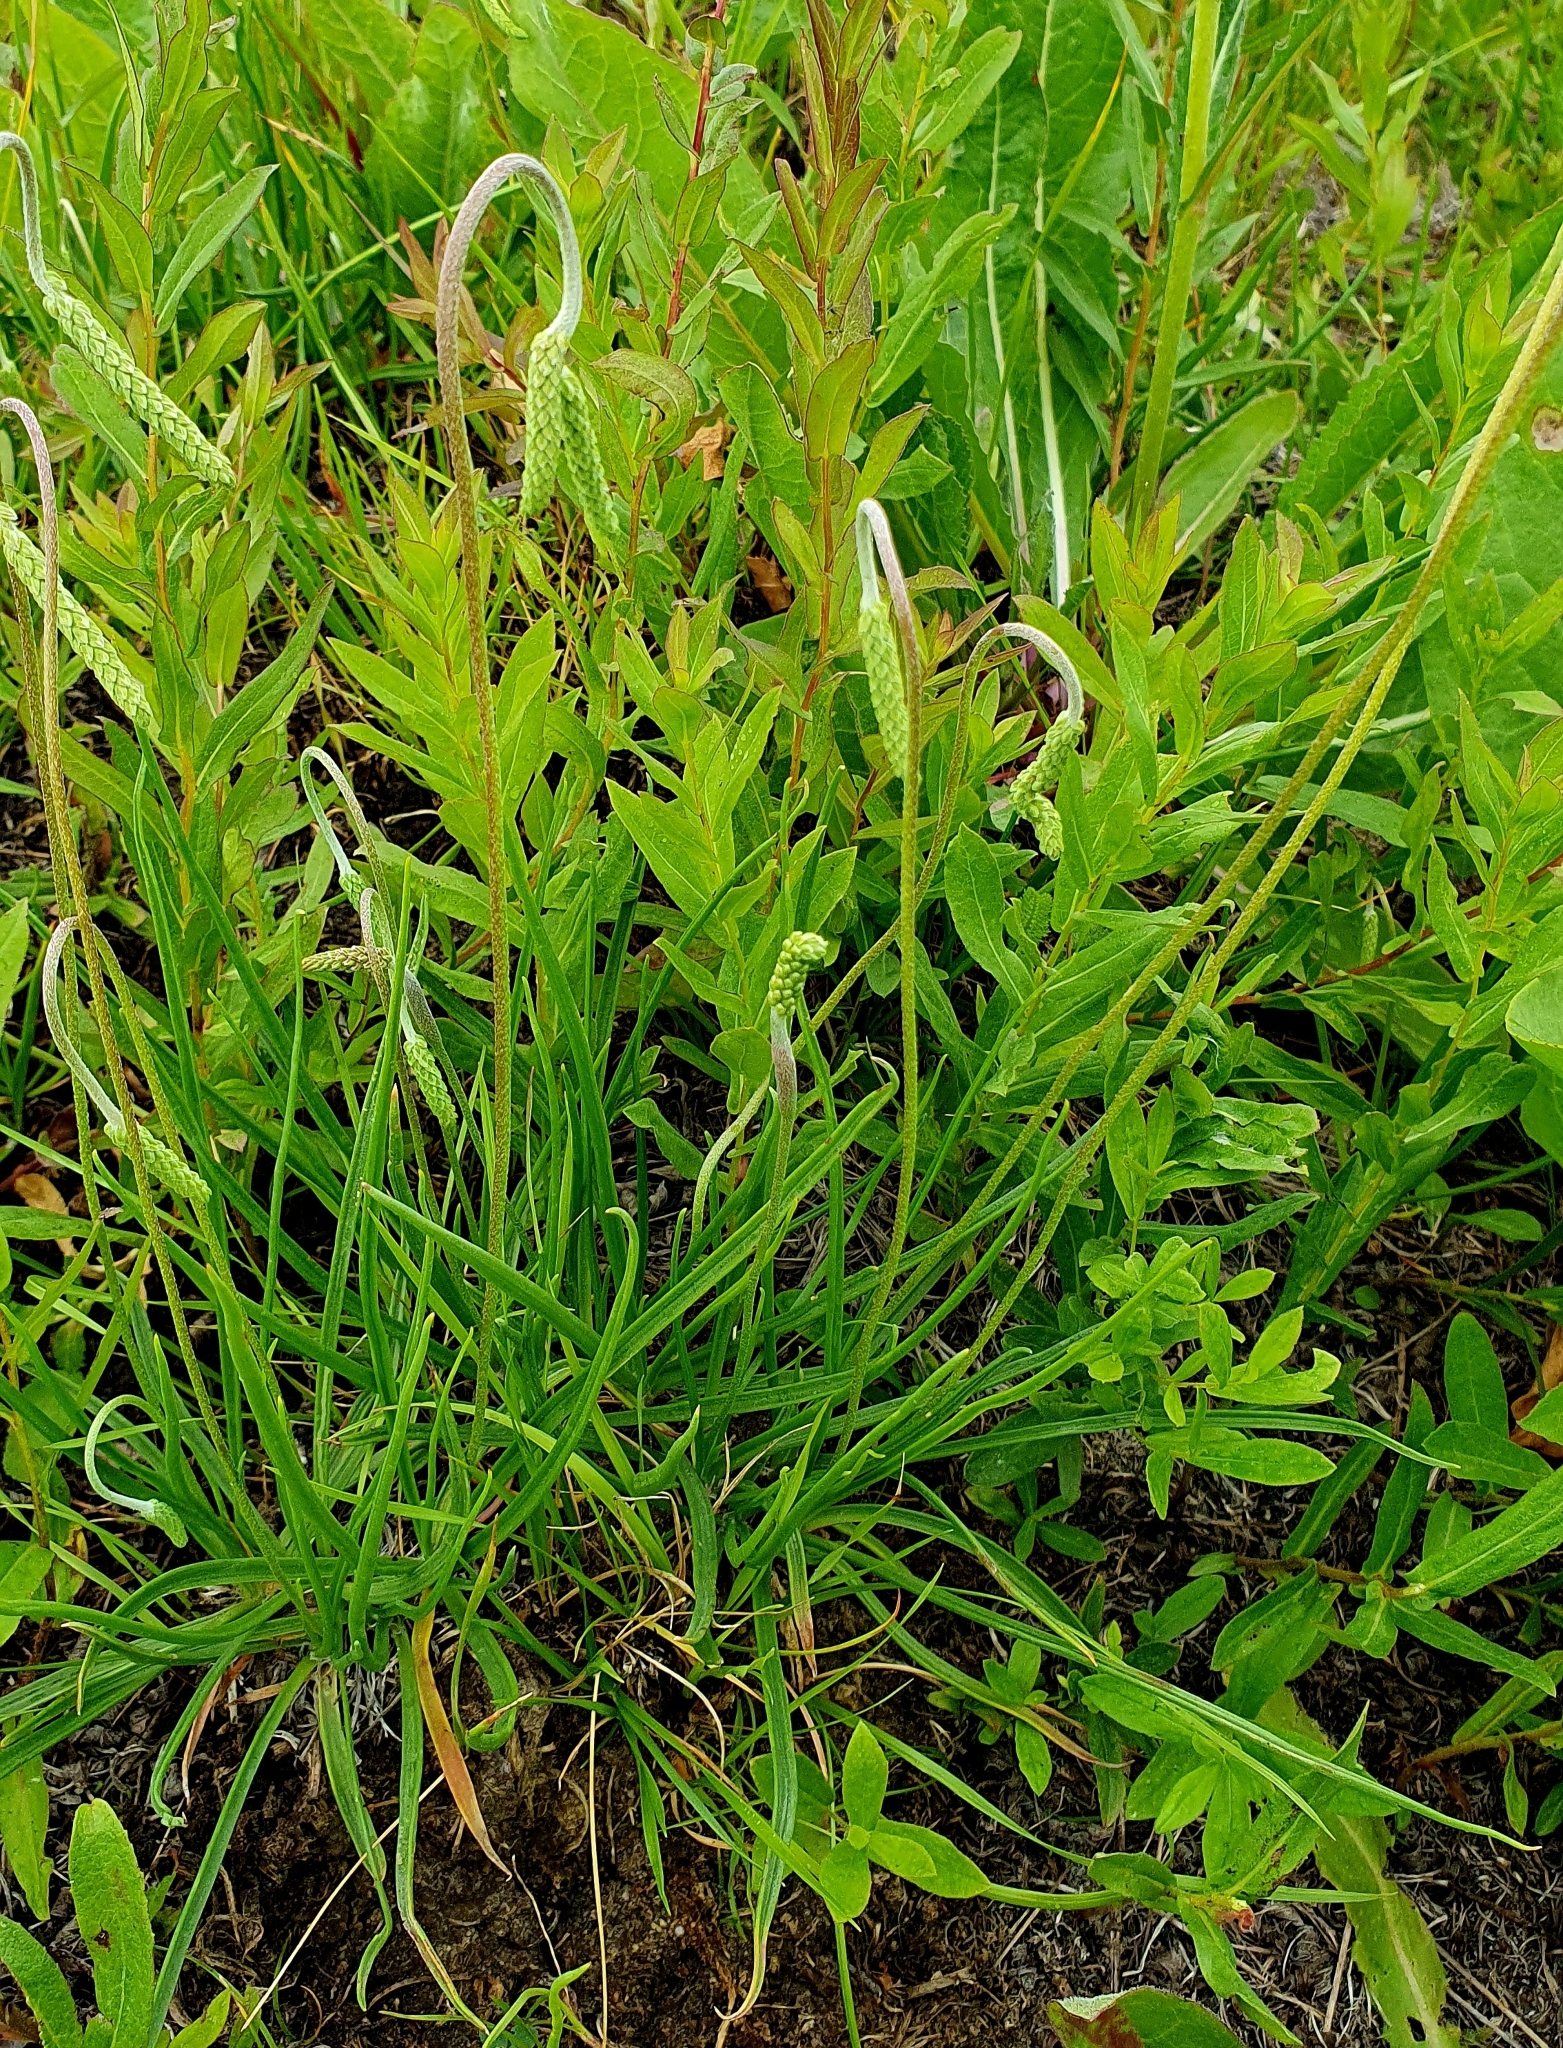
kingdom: Plantae
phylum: Tracheophyta
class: Magnoliopsida
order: Lamiales
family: Plantaginaceae
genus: Plantago
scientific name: Plantago salsa
